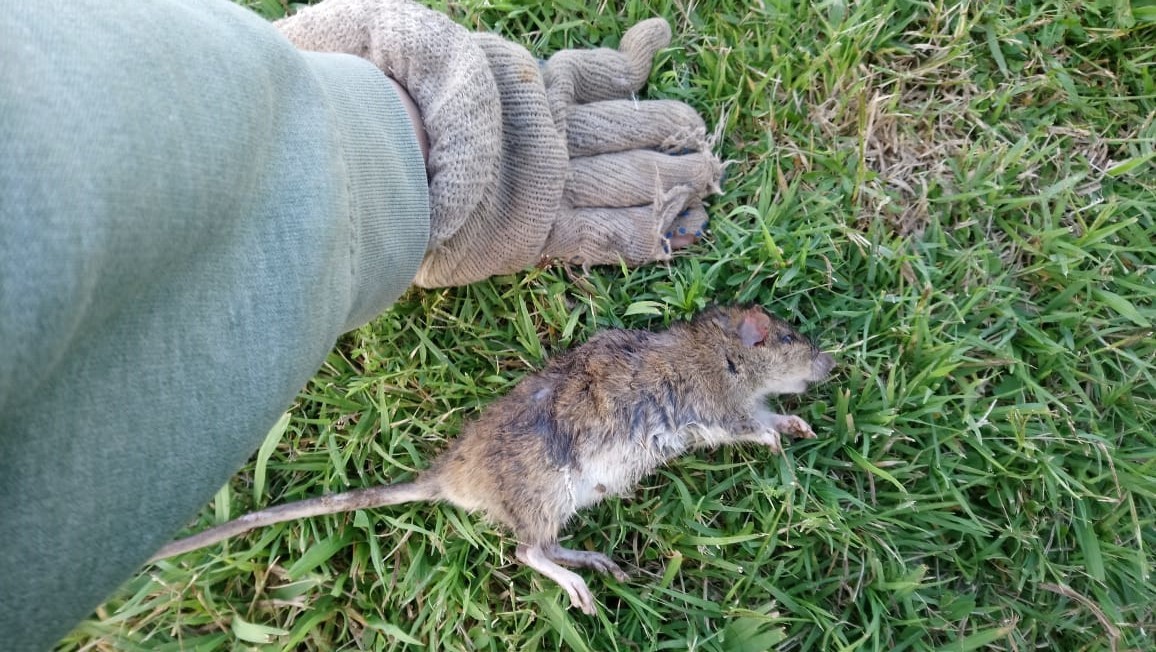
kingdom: Animalia
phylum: Chordata
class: Mammalia
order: Rodentia
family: Muridae
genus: Rattus
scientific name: Rattus norvegicus
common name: Brown rat
